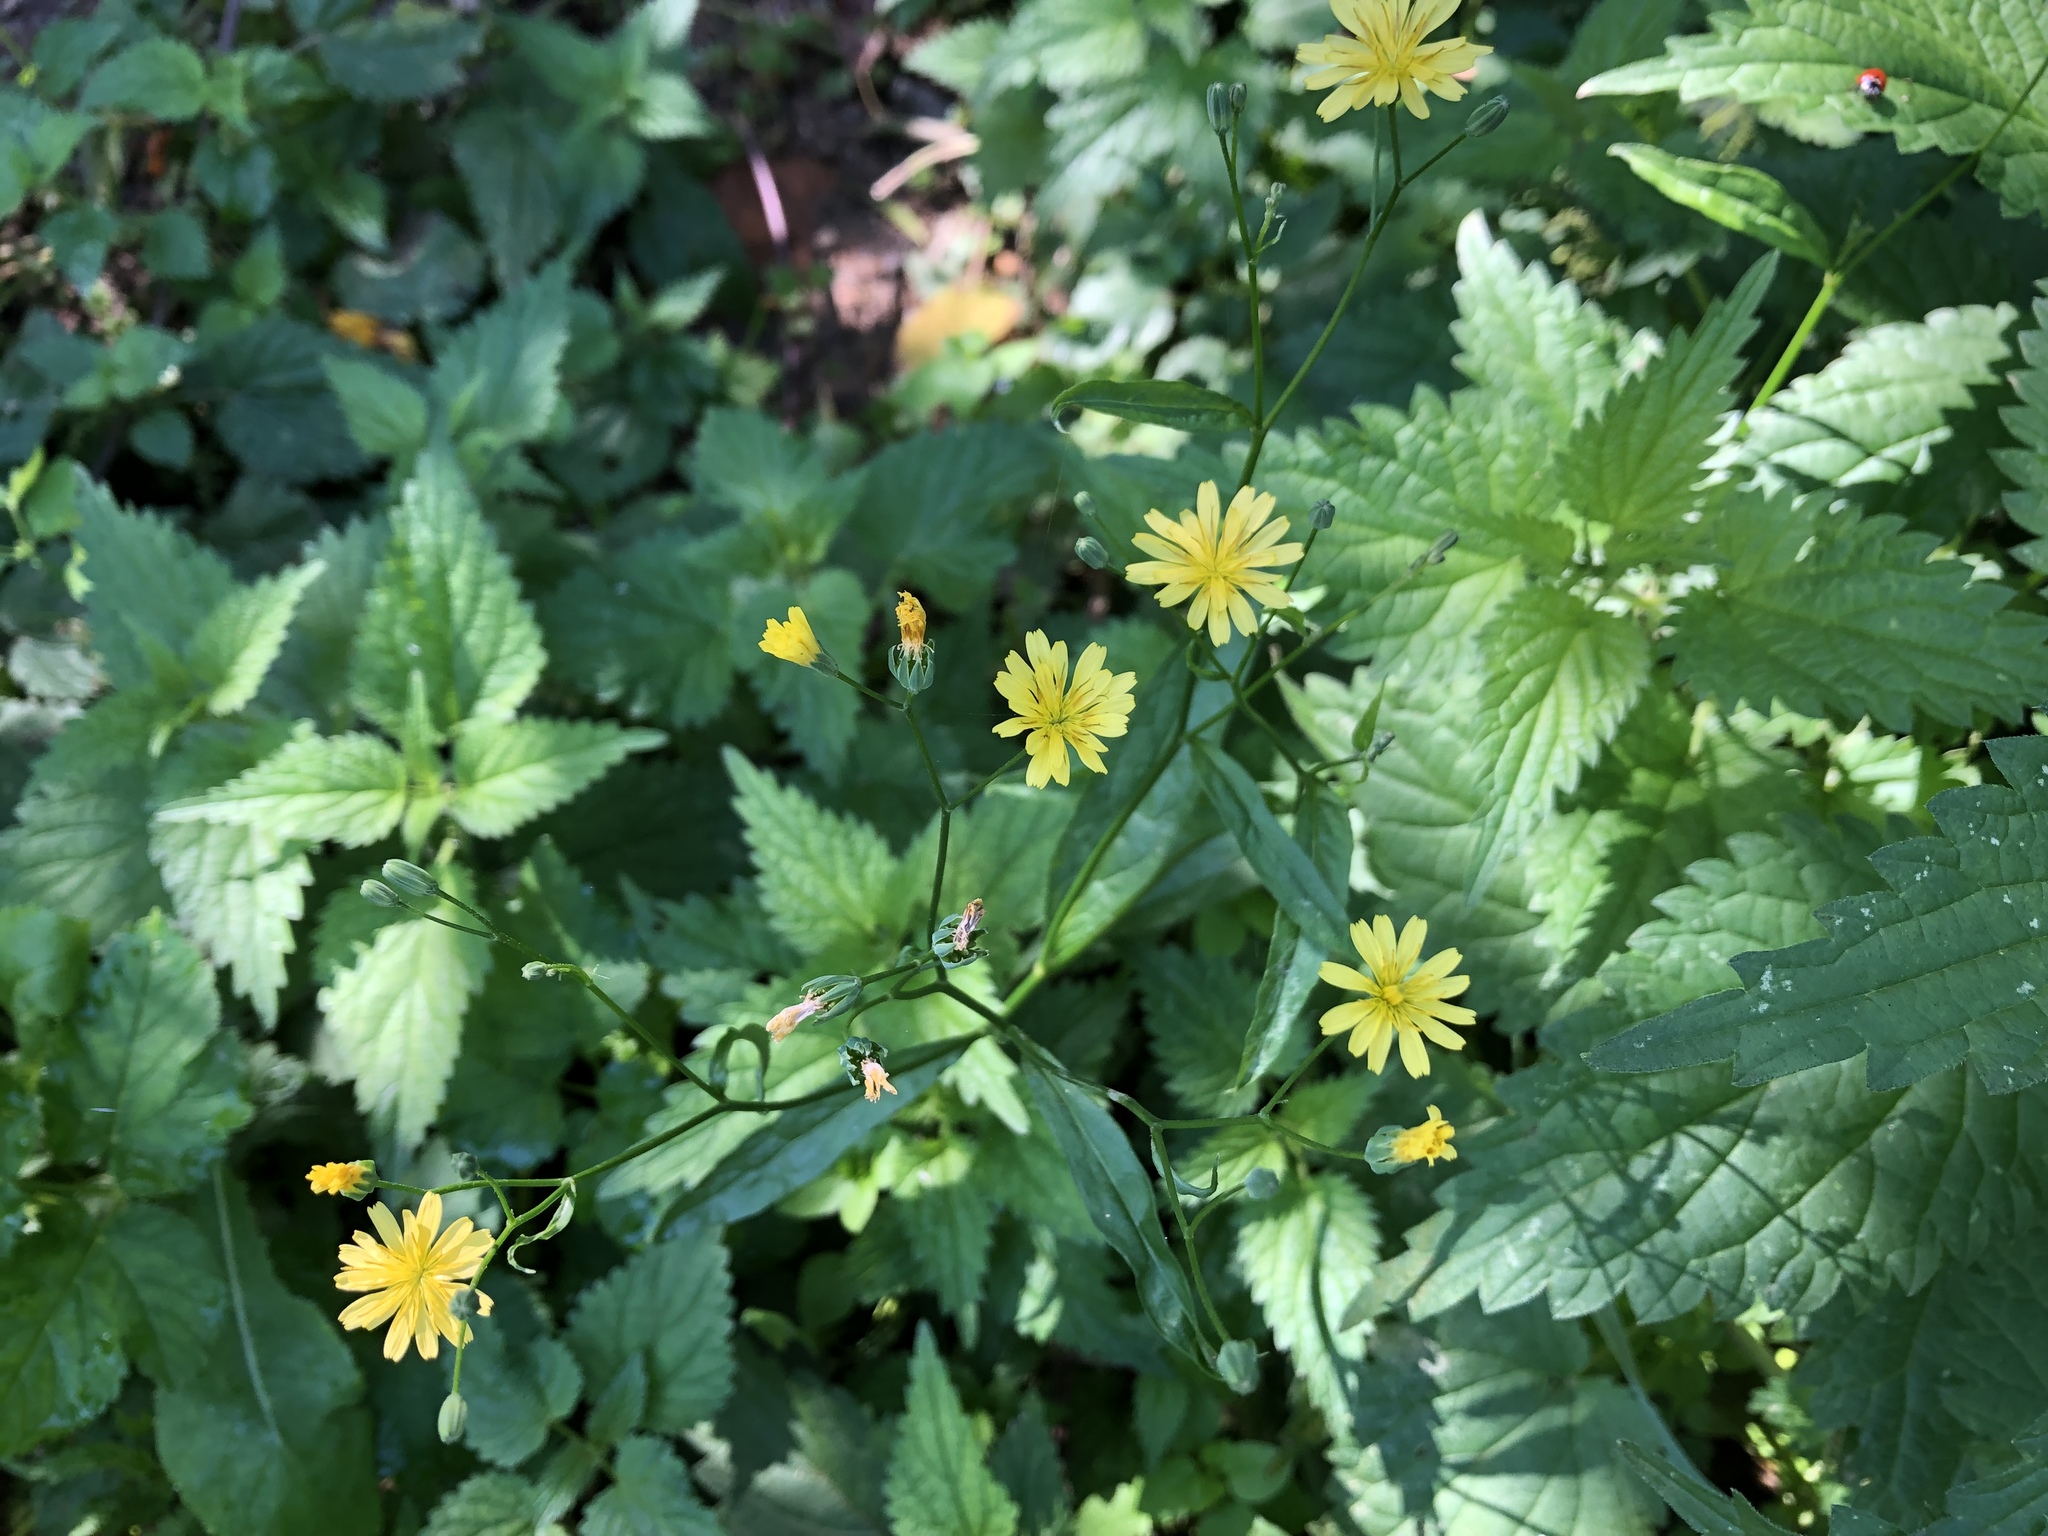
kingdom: Plantae
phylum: Tracheophyta
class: Magnoliopsida
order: Asterales
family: Asteraceae
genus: Lapsana
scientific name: Lapsana communis
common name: Nipplewort
